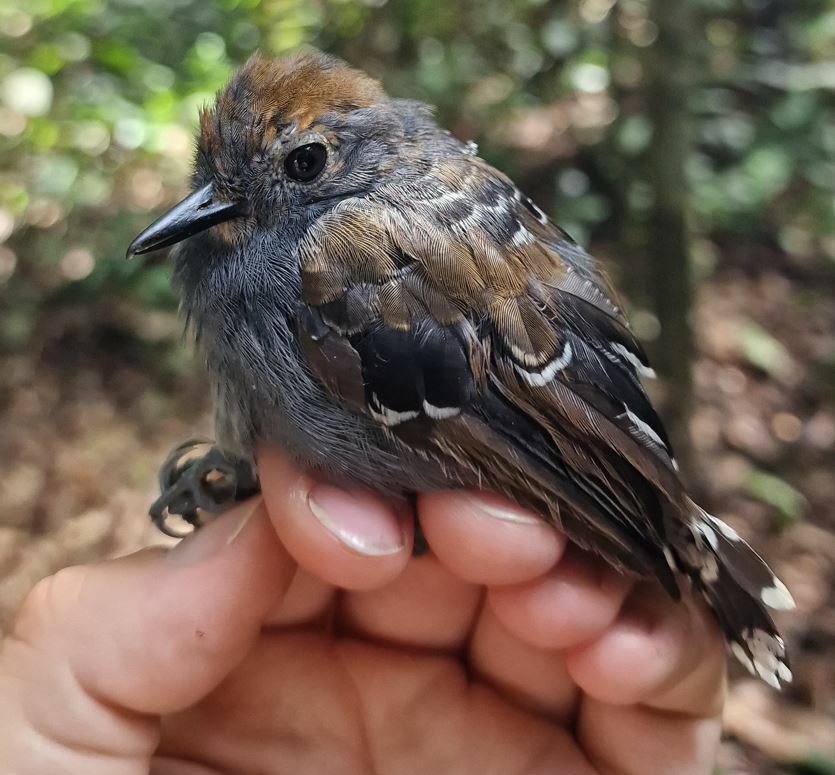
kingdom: Animalia
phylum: Chordata
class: Aves
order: Passeriformes
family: Thamnophilidae
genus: Willisornis
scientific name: Willisornis poecilinotus
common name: Common scale-backed antbird
